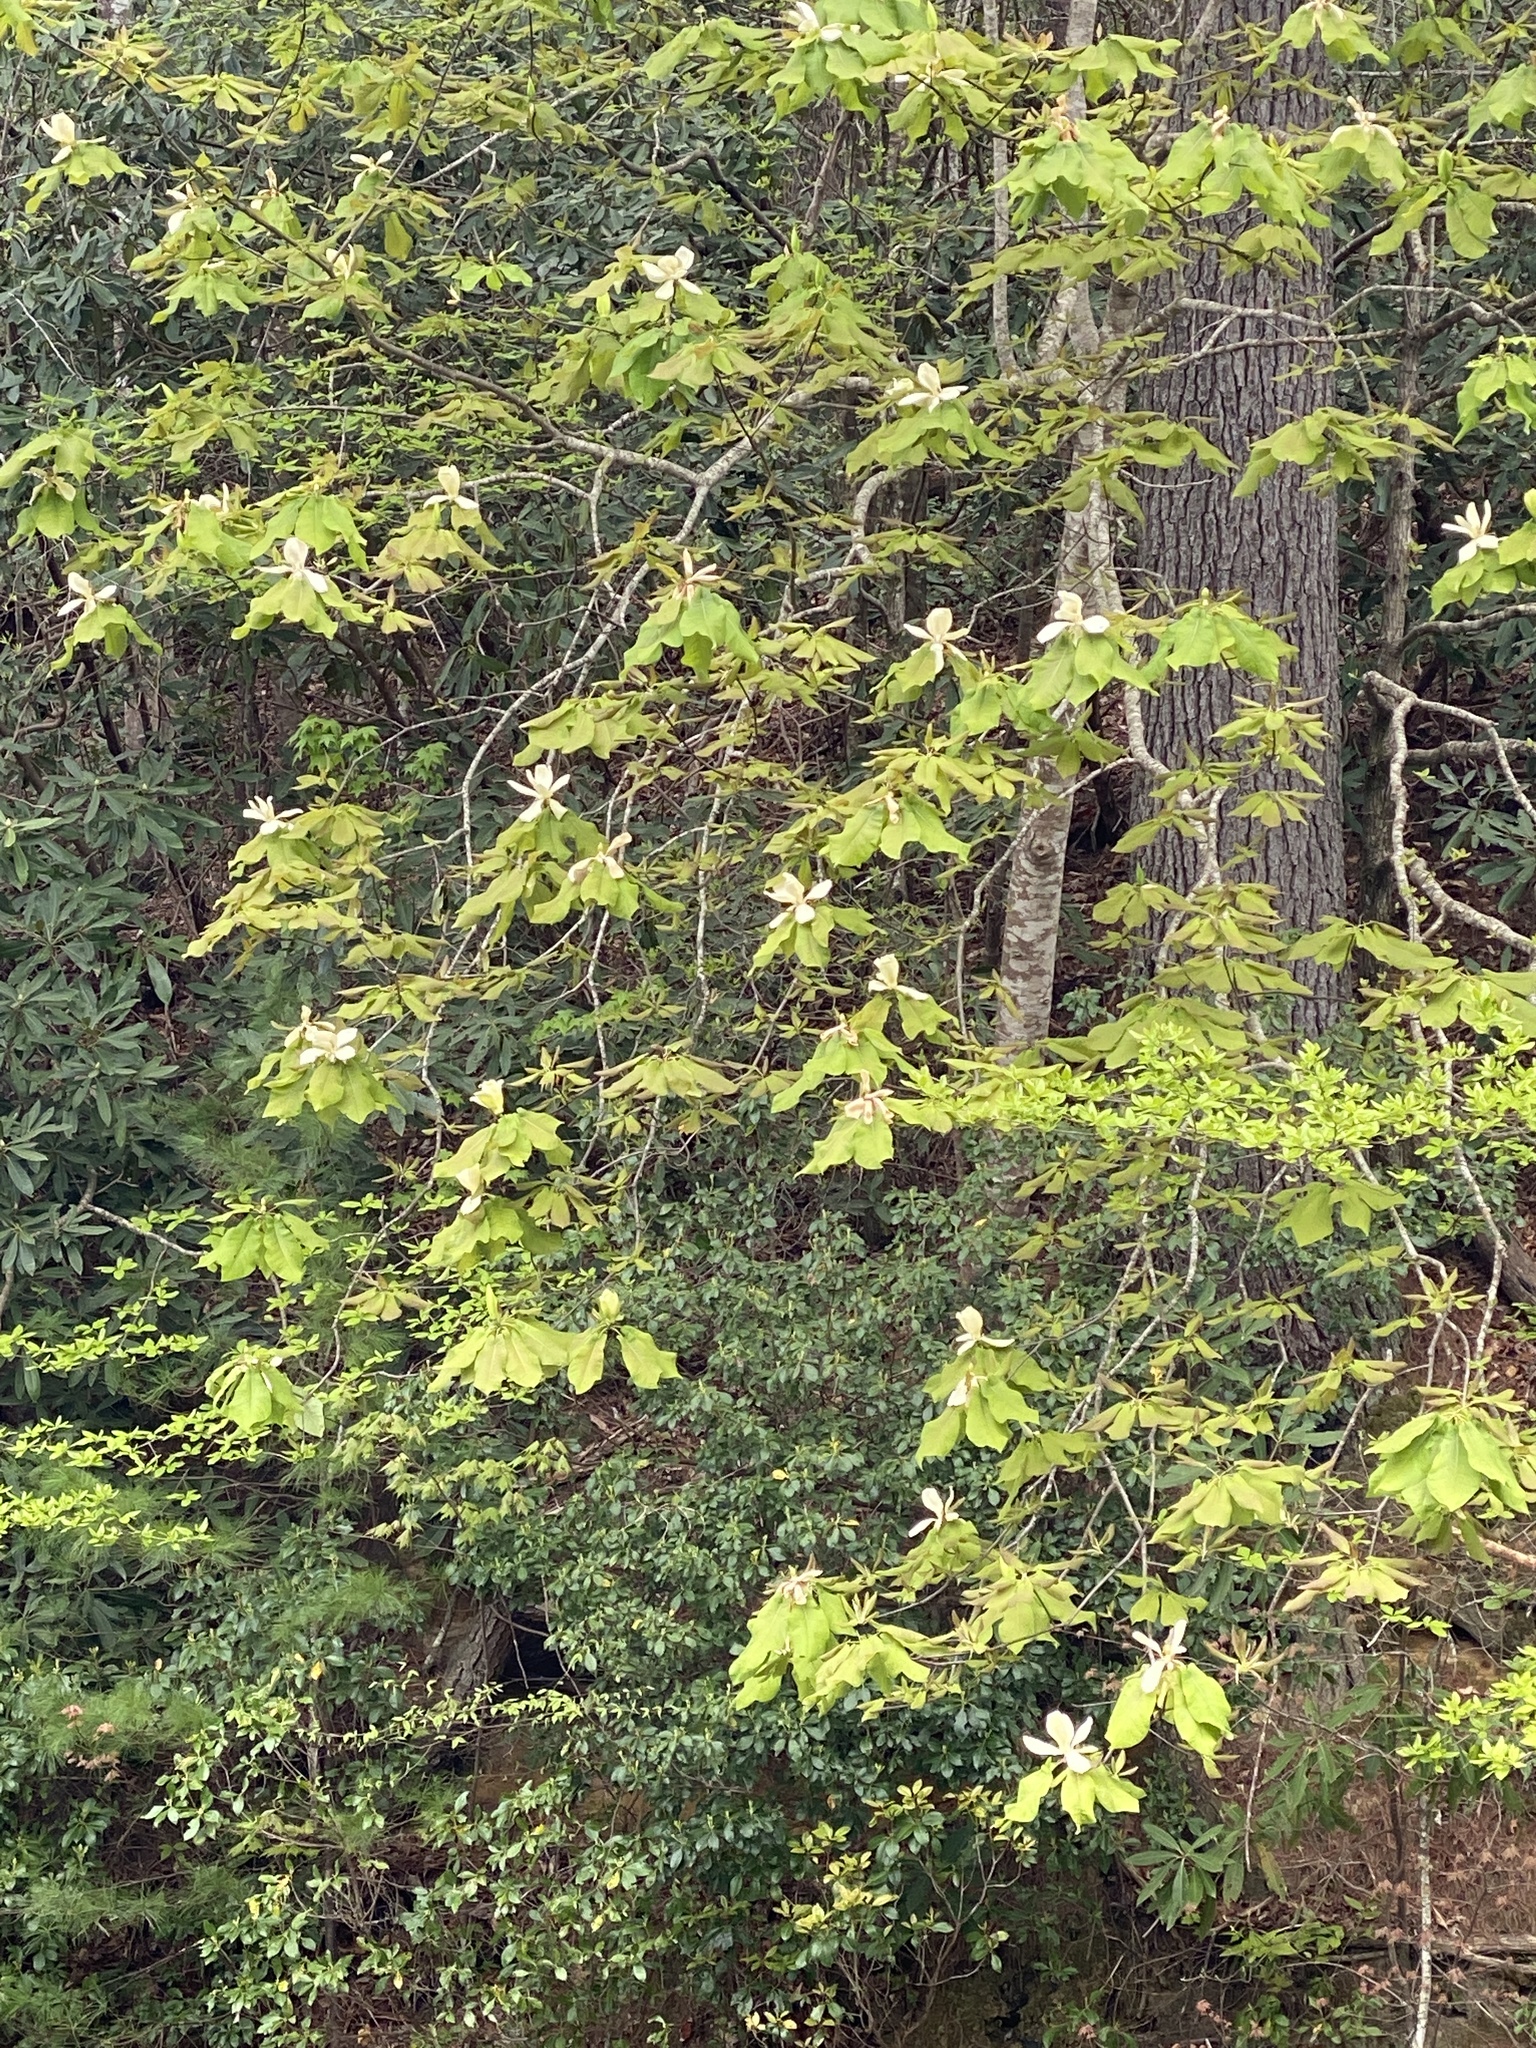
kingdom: Plantae
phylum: Tracheophyta
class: Magnoliopsida
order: Magnoliales
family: Magnoliaceae
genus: Magnolia
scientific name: Magnolia fraseri
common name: Fraser's magnolia
